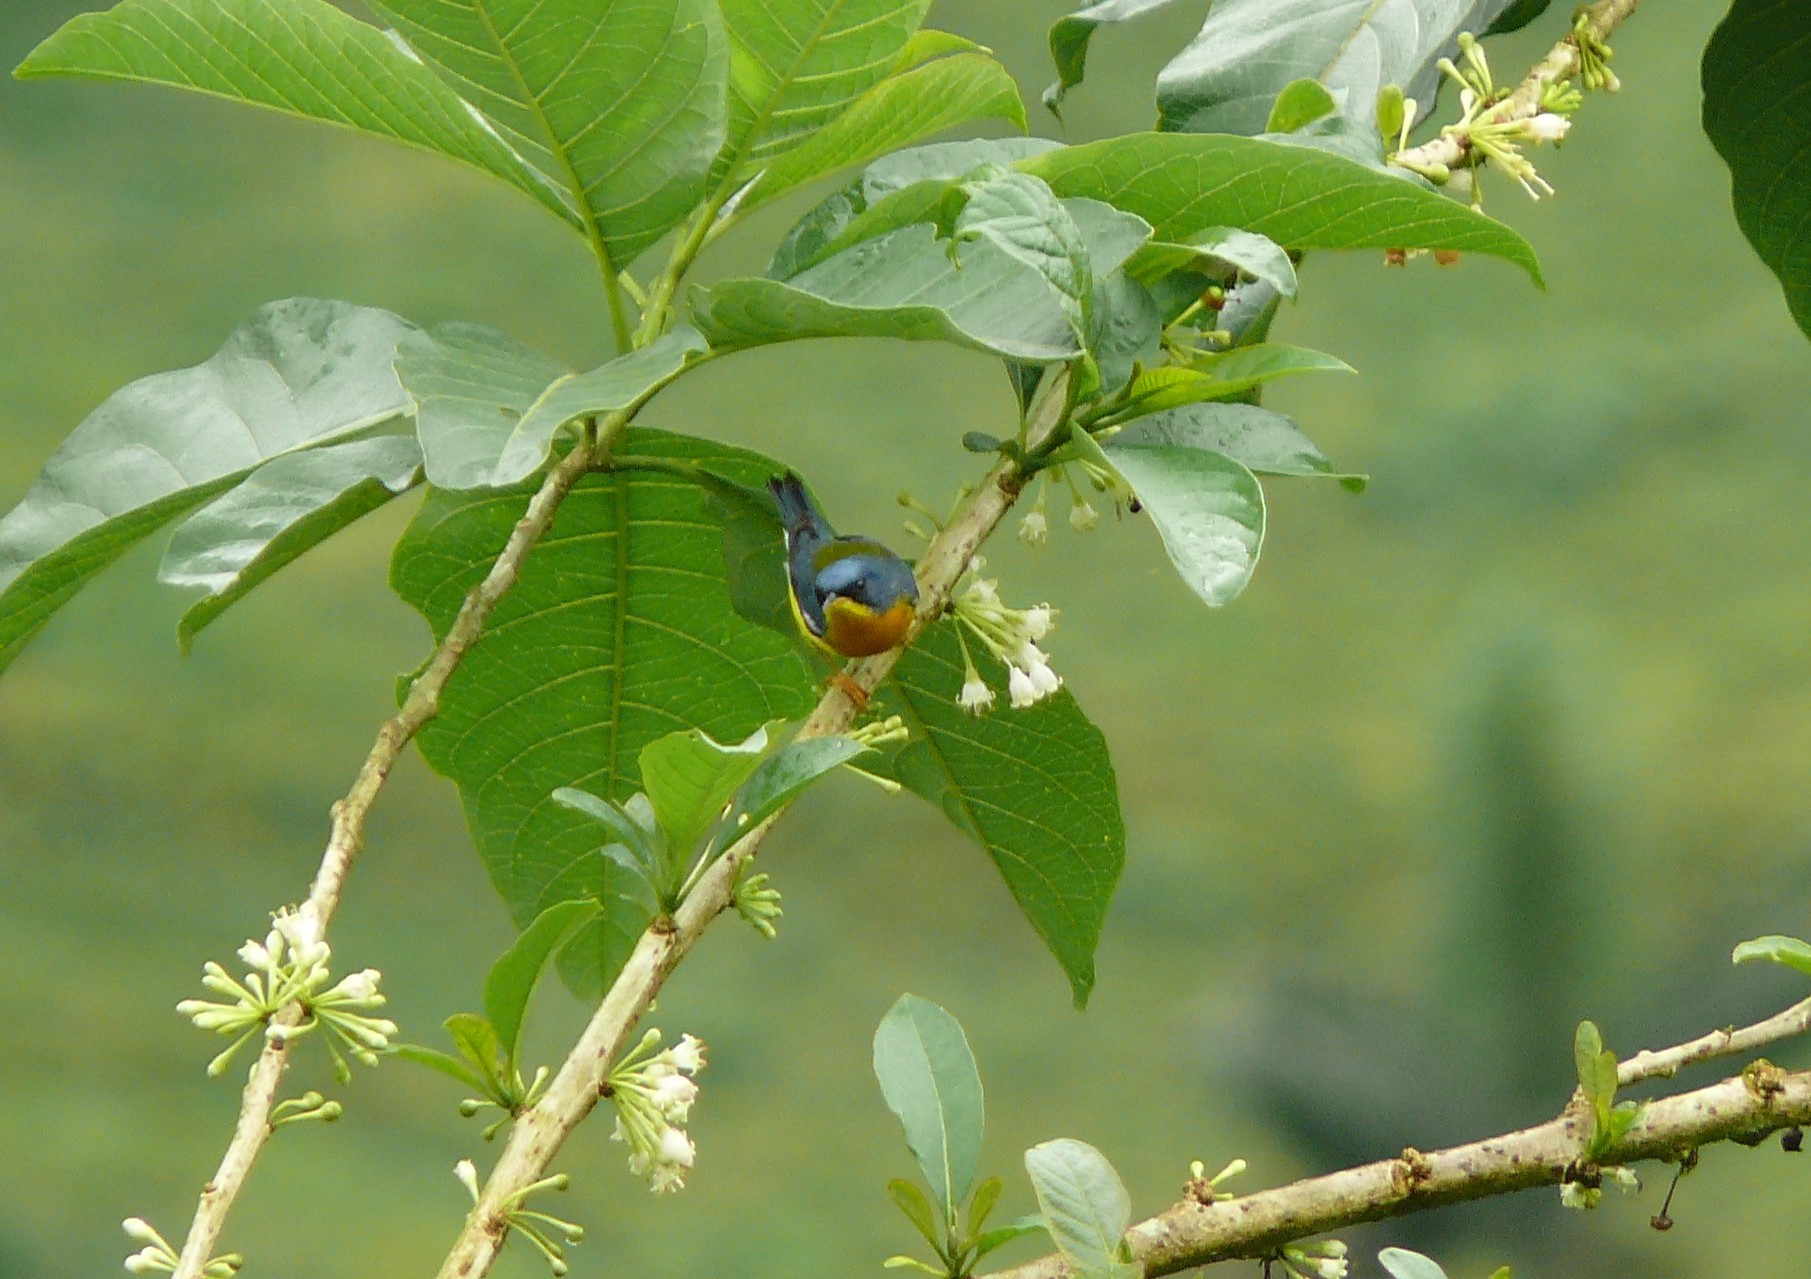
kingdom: Animalia
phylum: Chordata
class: Aves
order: Passeriformes
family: Parulidae
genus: Setophaga
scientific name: Setophaga pitiayumi
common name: Tropical parula
